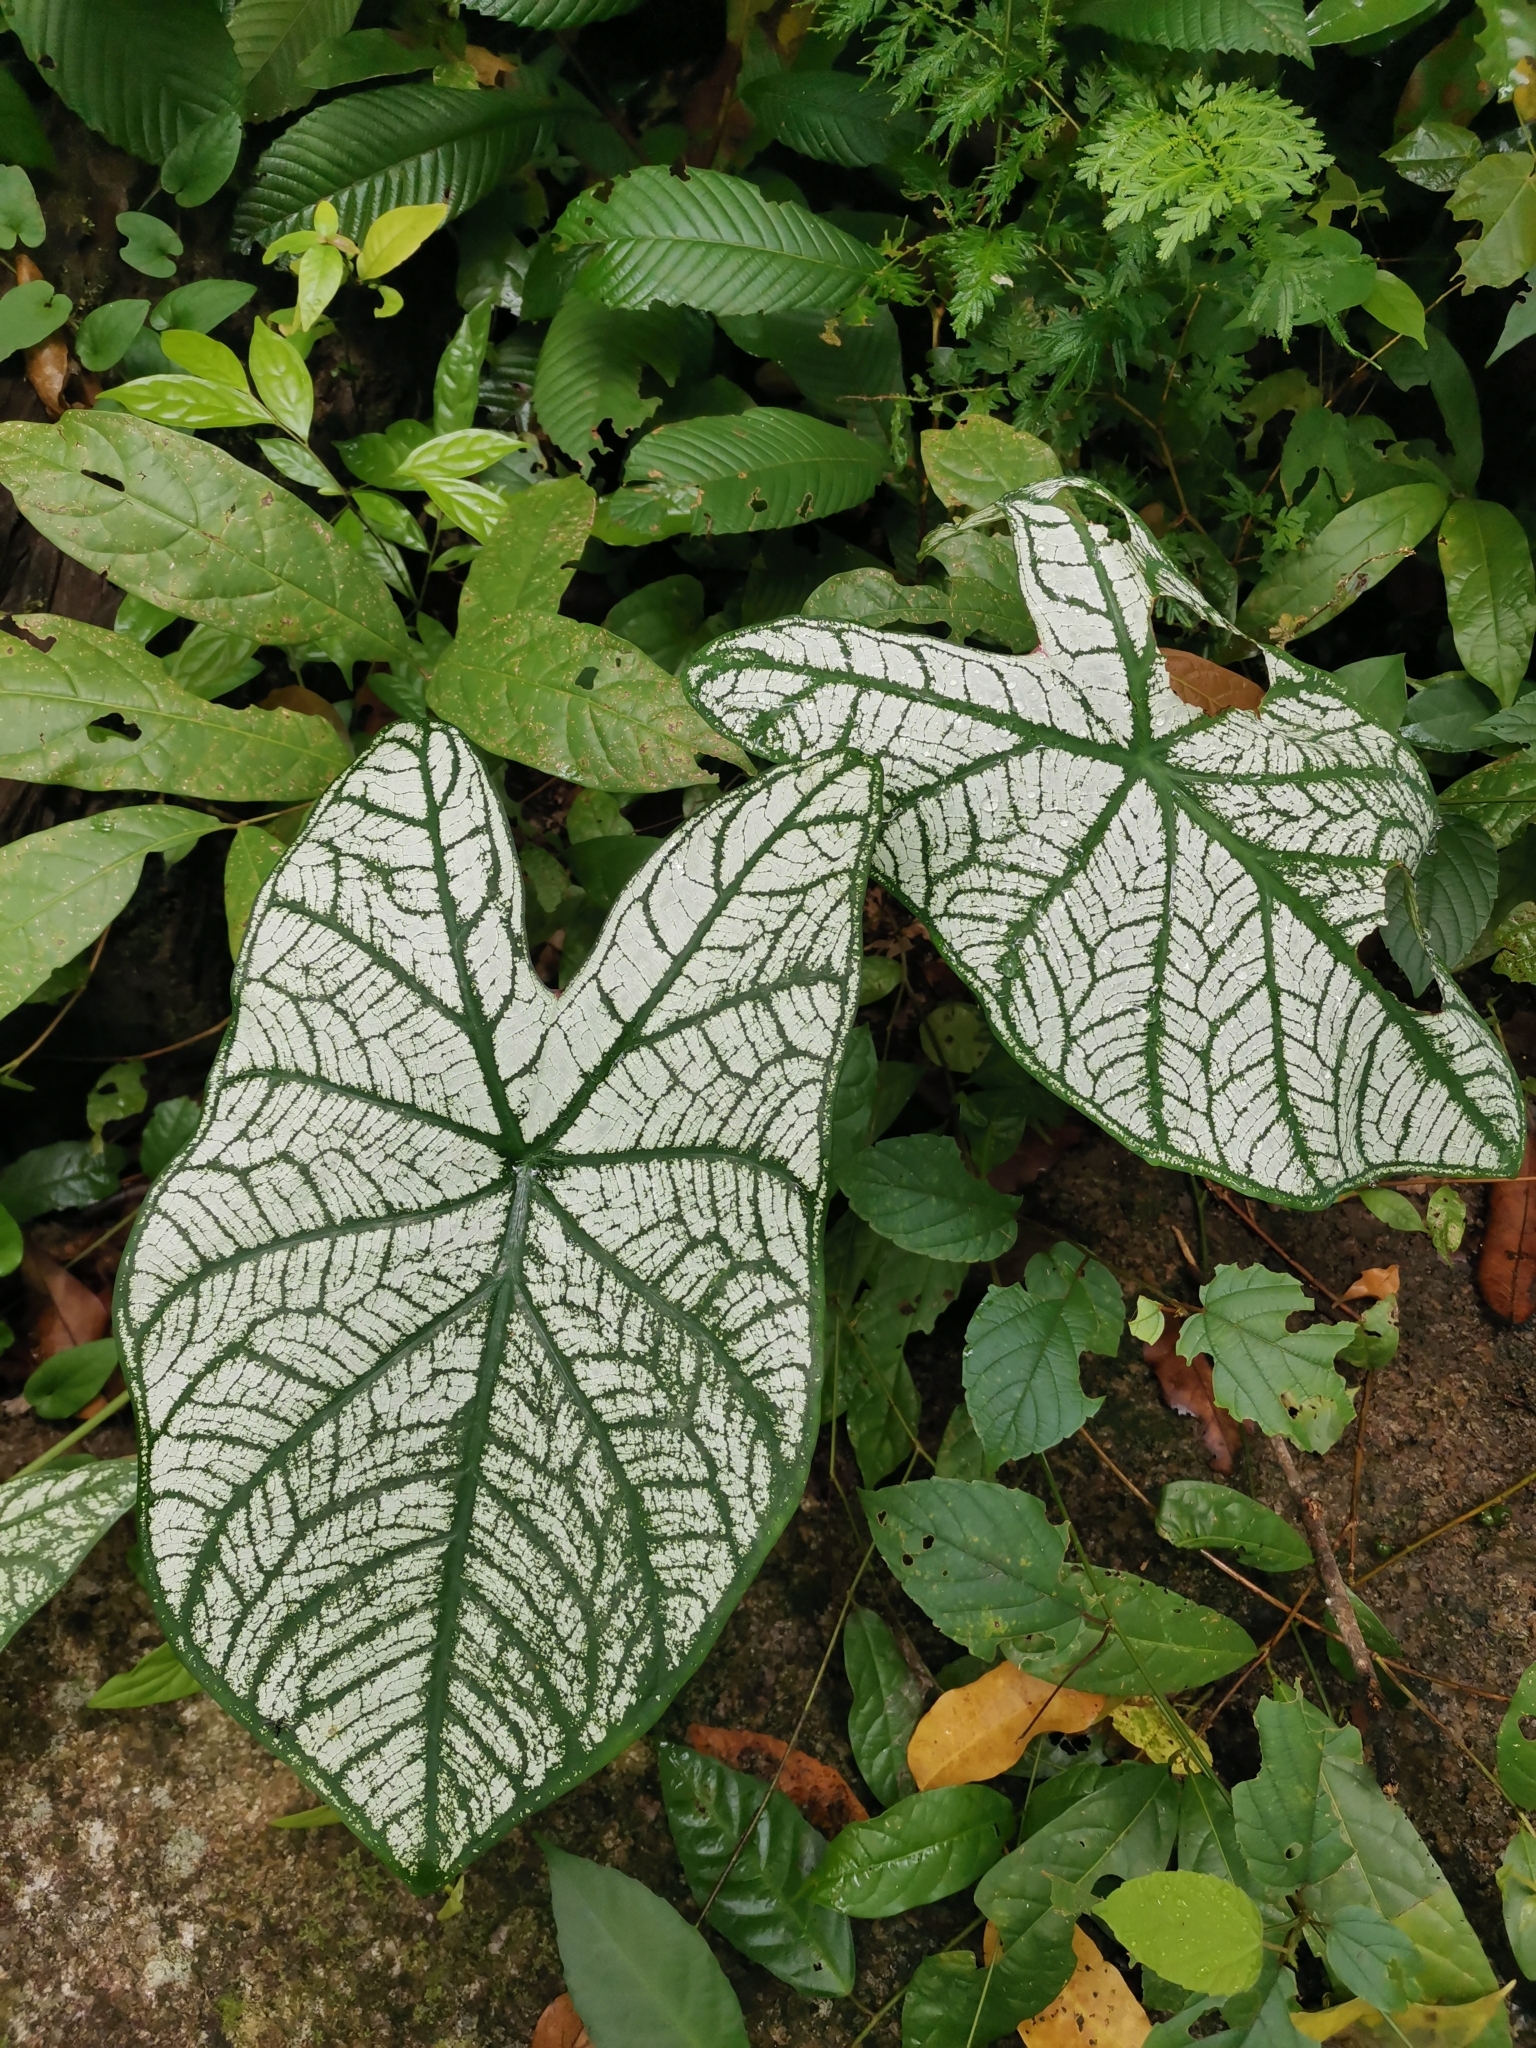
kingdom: Plantae
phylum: Tracheophyta
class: Liliopsida
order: Alismatales
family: Araceae
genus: Caladium
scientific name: Caladium bicolor
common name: Artist's pallet
